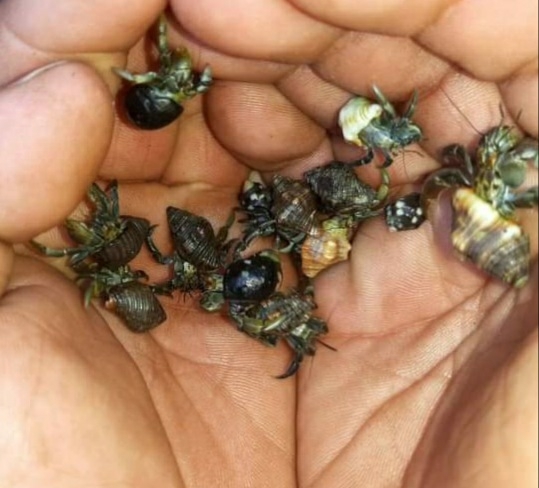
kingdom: Animalia
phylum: Arthropoda
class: Malacostraca
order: Decapoda
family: Coenobitidae
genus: Coenobita
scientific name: Coenobita compressus
